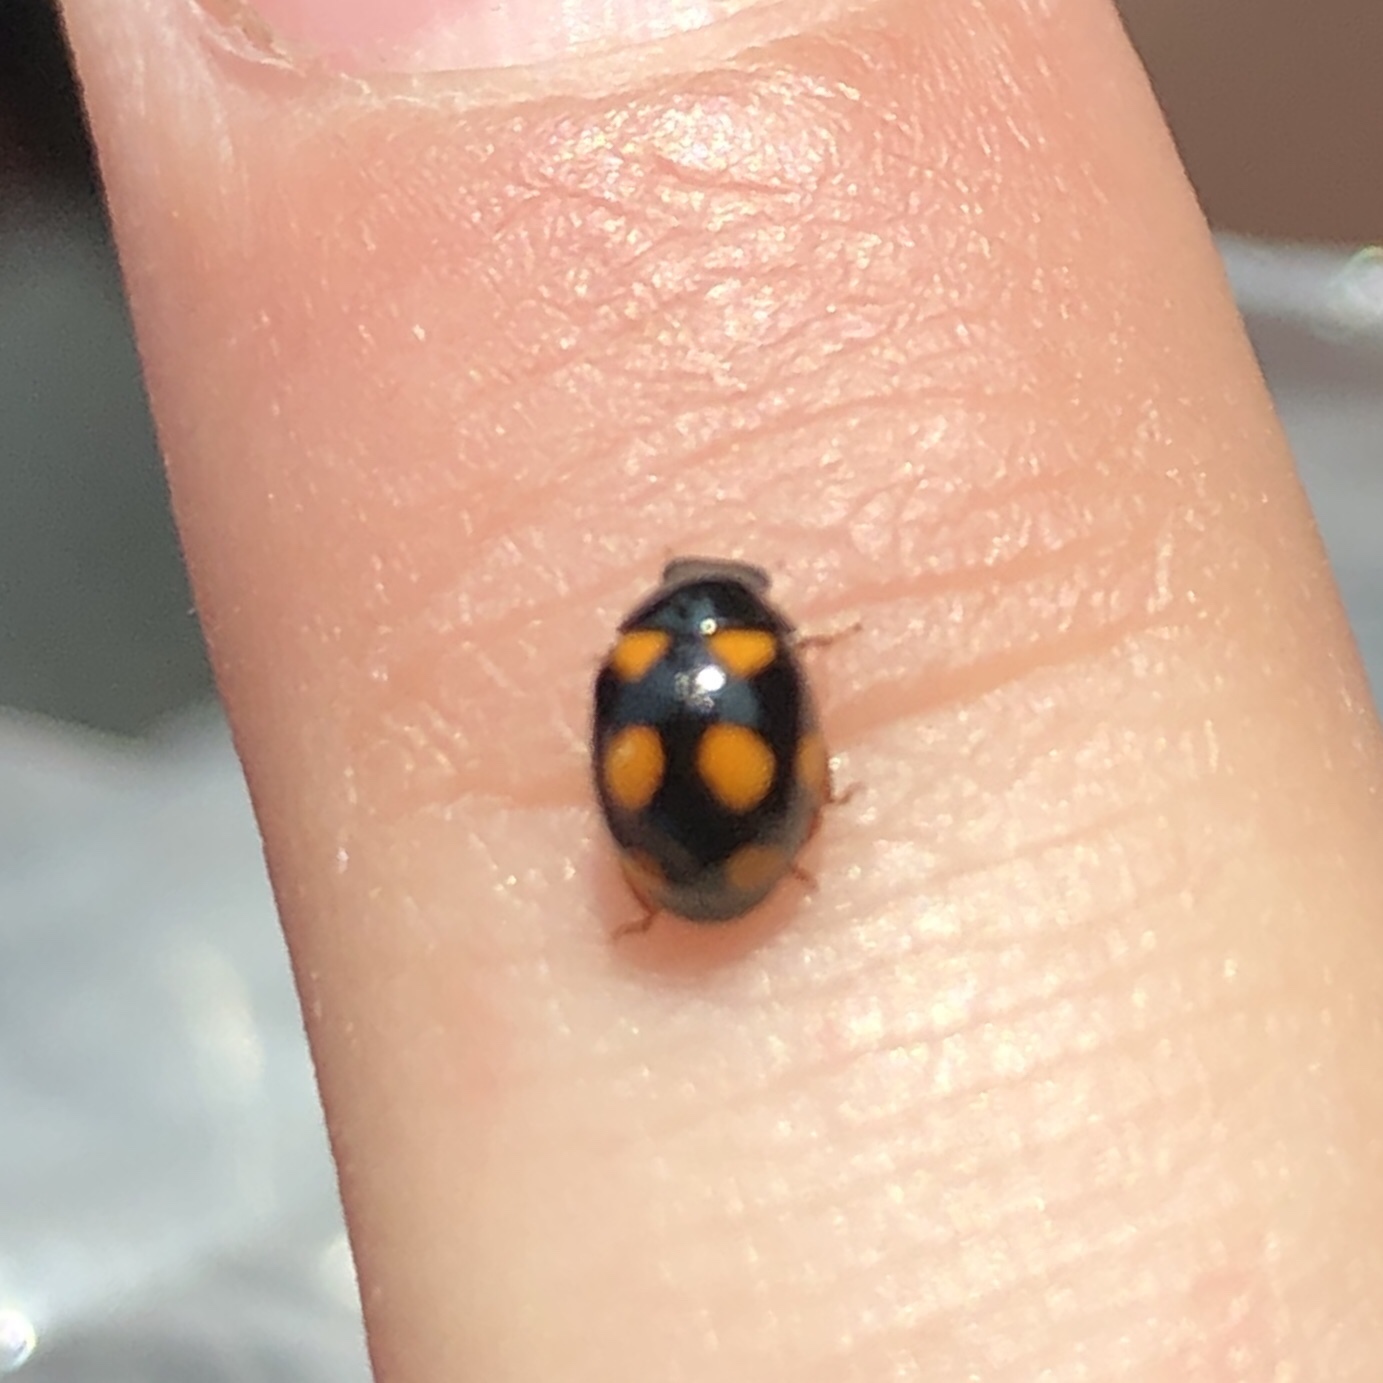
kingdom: Animalia
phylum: Arthropoda
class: Insecta
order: Coleoptera
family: Coccinellidae
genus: Brachiacantha
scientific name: Brachiacantha ursina
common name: Ursine spurleg lady beetle
